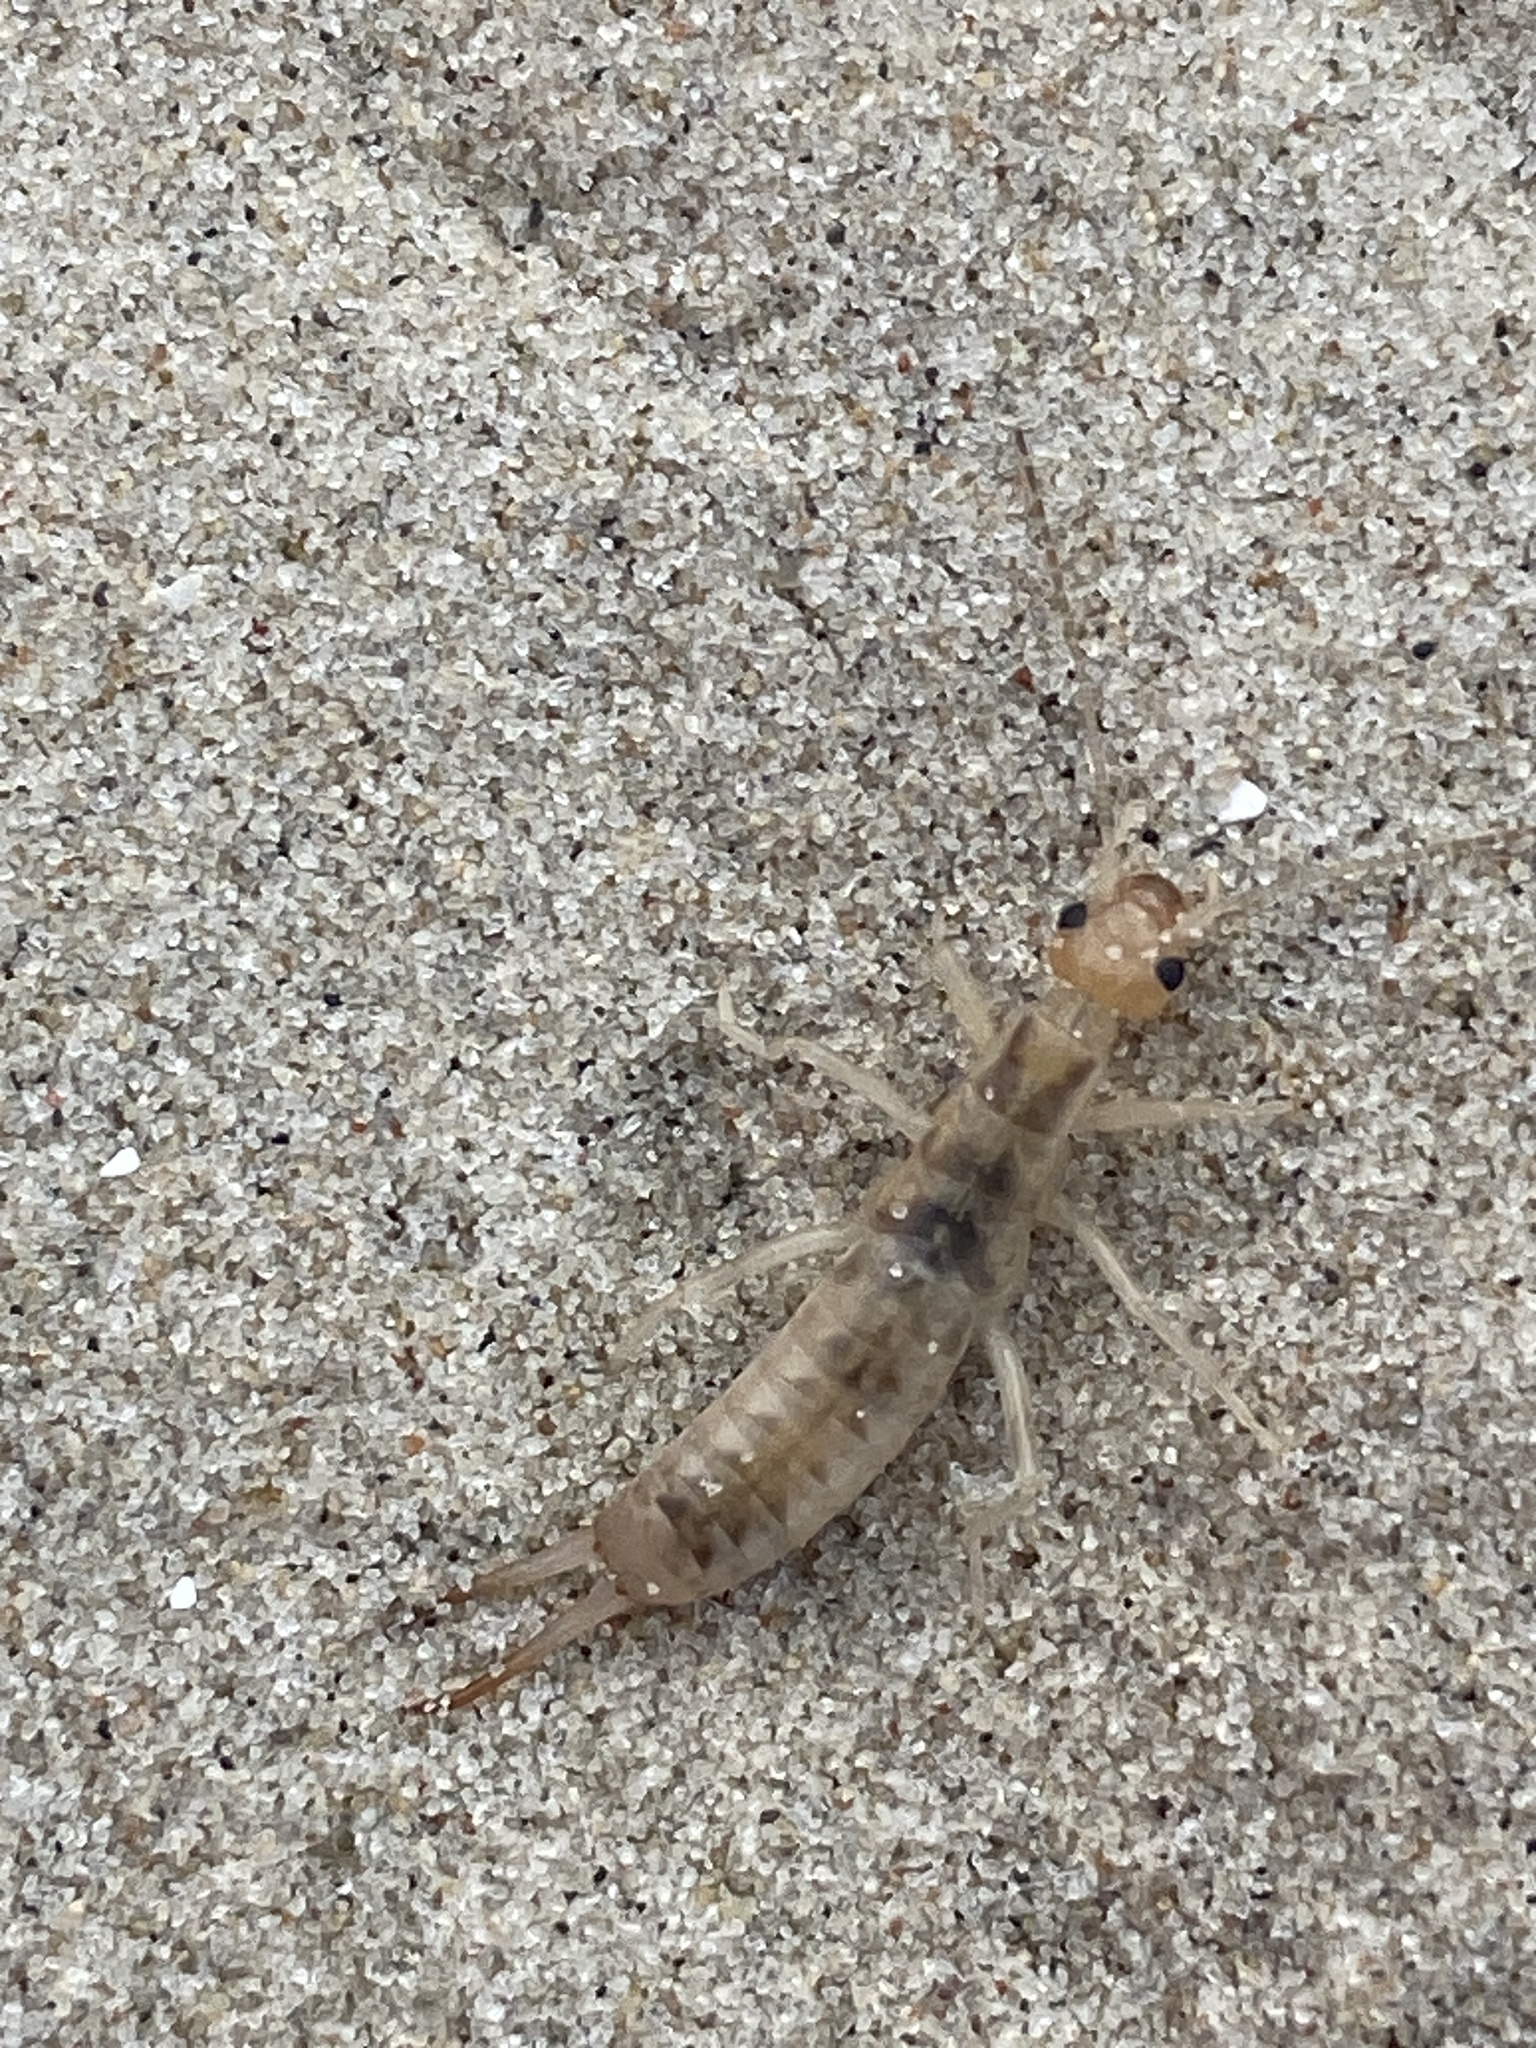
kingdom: Animalia
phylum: Arthropoda
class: Insecta
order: Dermaptera
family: Labiduridae
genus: Labidura
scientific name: Labidura riparia
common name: Striped earwig
